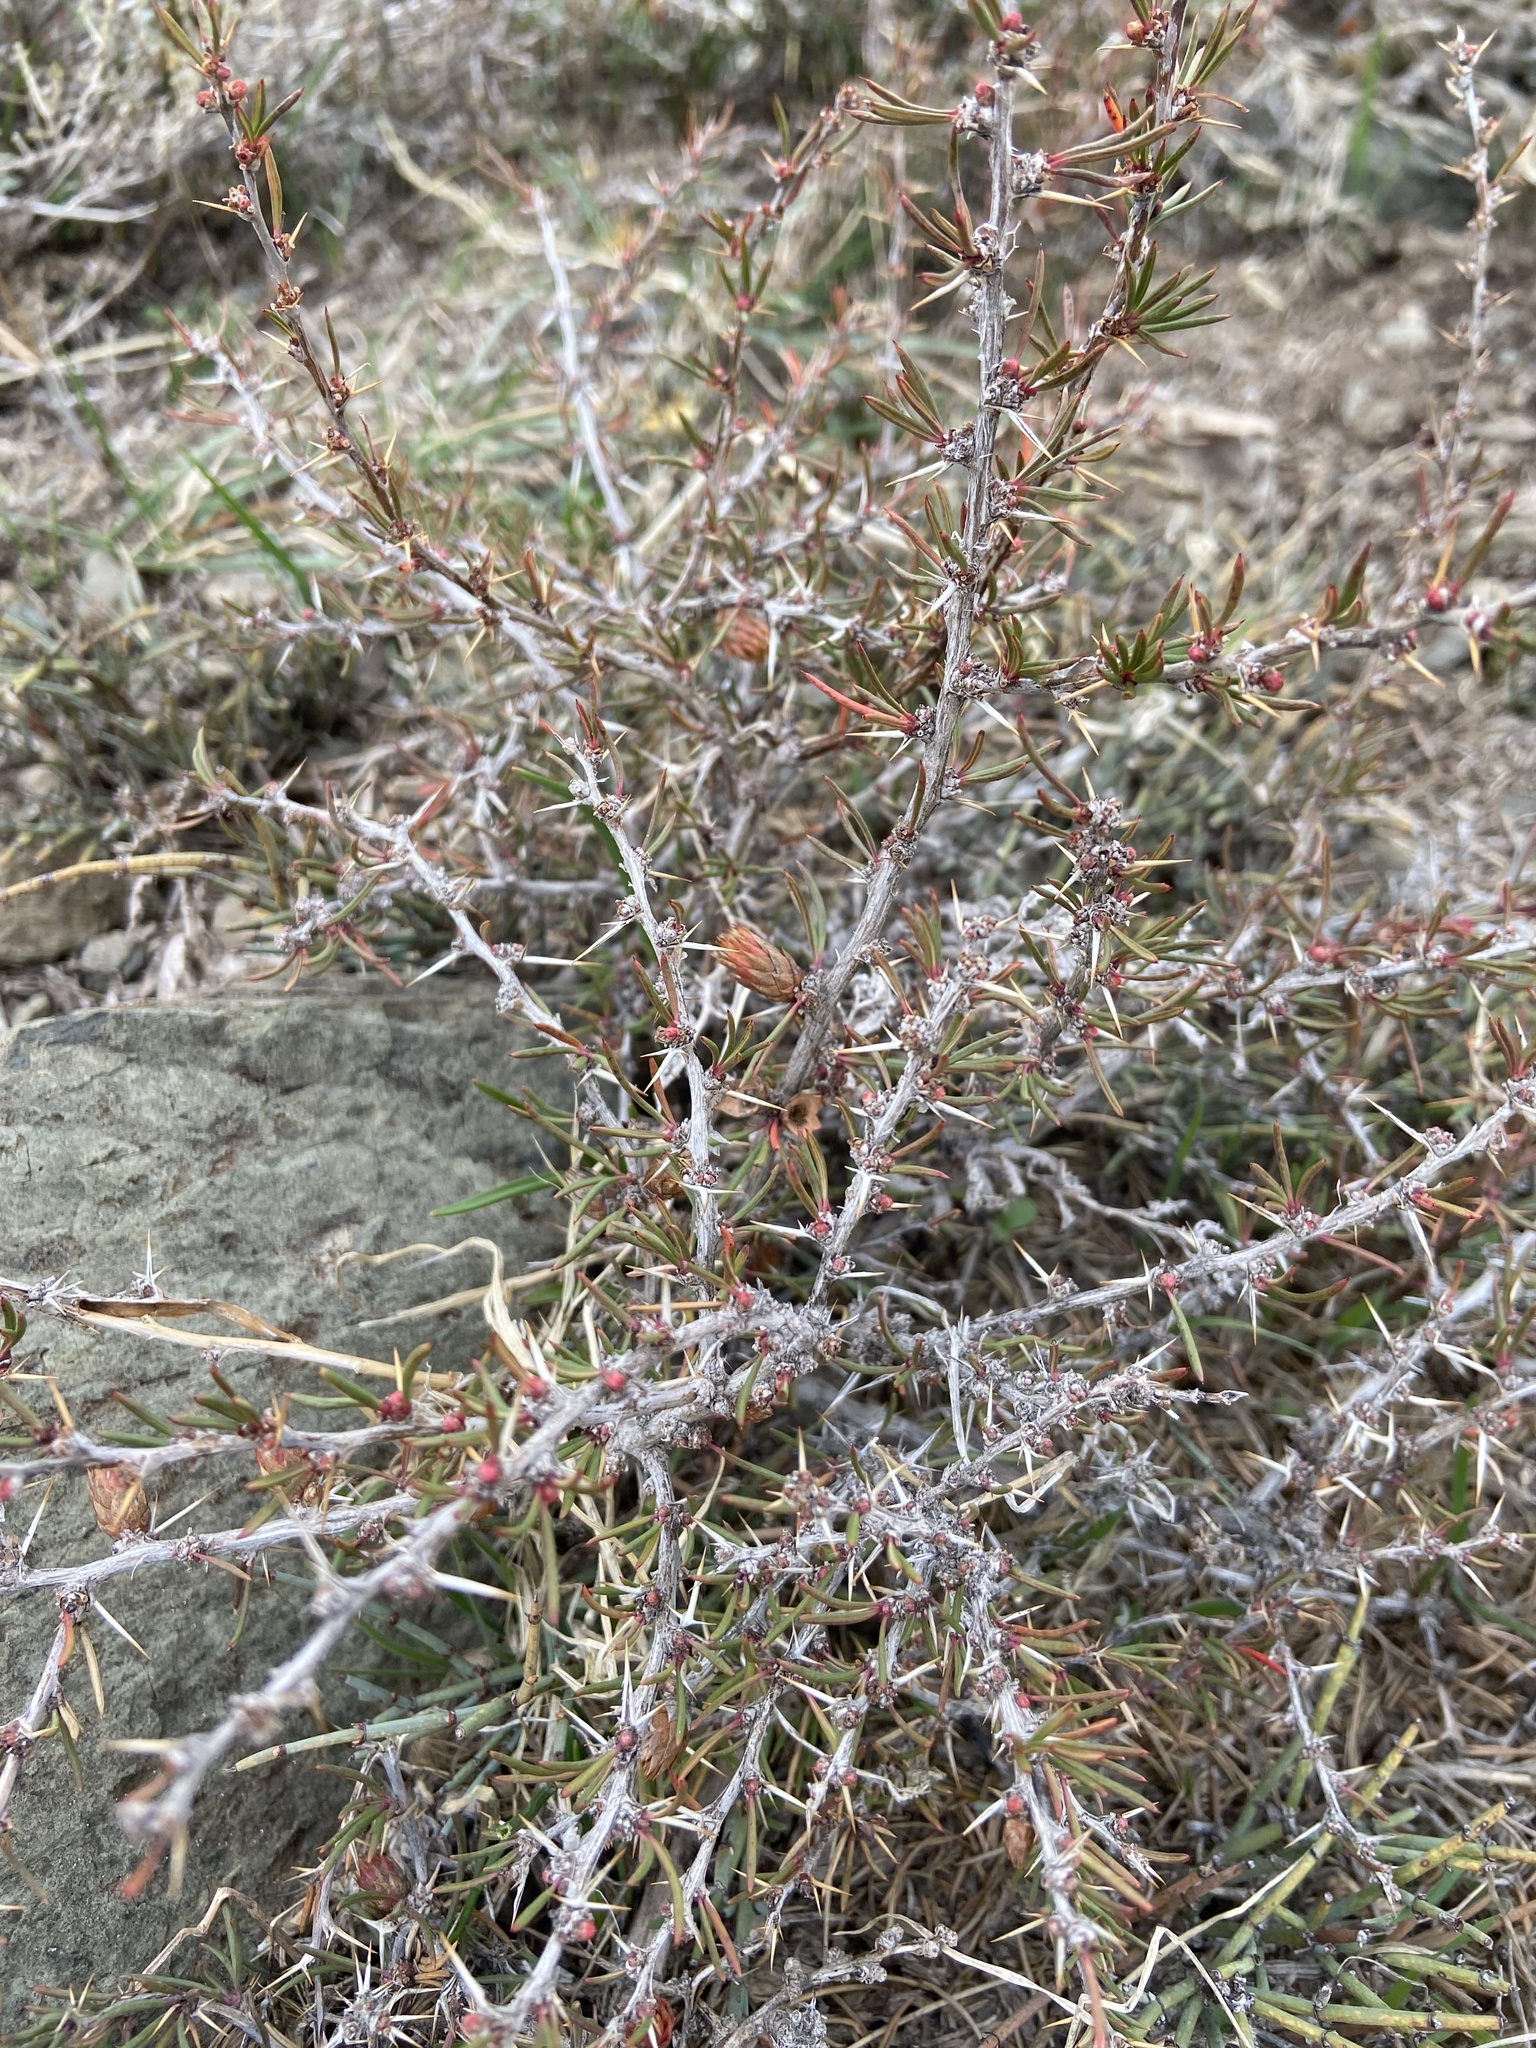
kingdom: Plantae
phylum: Tracheophyta
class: Magnoliopsida
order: Ranunculales
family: Berberidaceae
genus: Berberis
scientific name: Berberis empetrifolia
